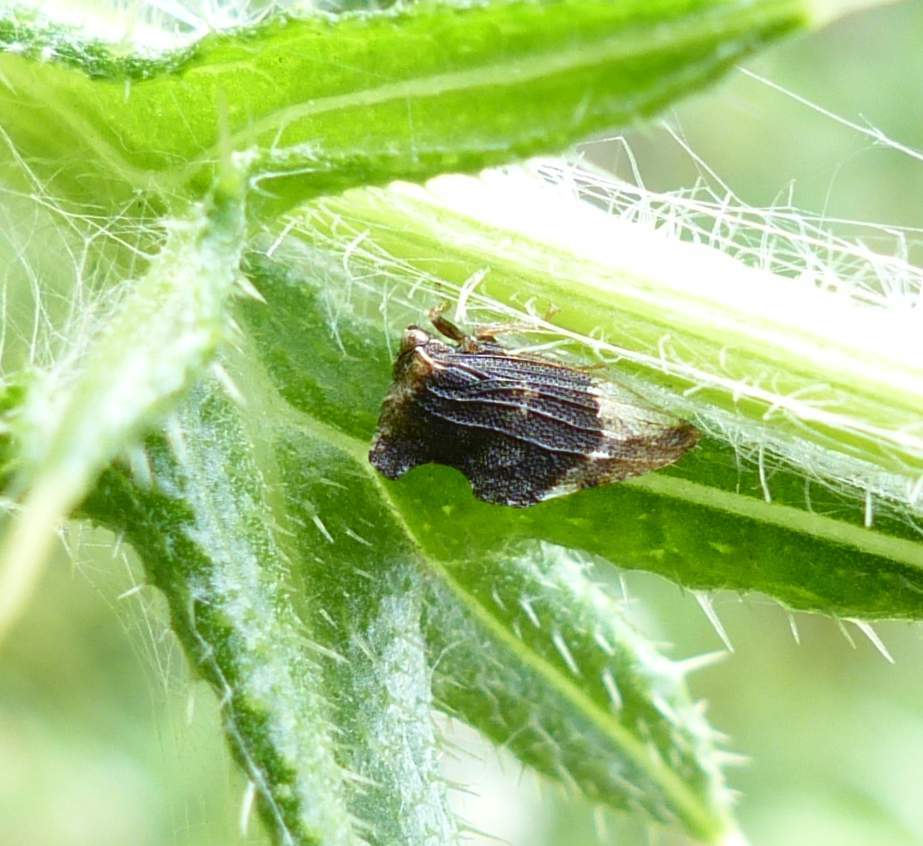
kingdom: Animalia
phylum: Arthropoda
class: Insecta
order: Hemiptera
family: Membracidae
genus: Entylia
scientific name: Entylia carinata
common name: Keeled treehopper
